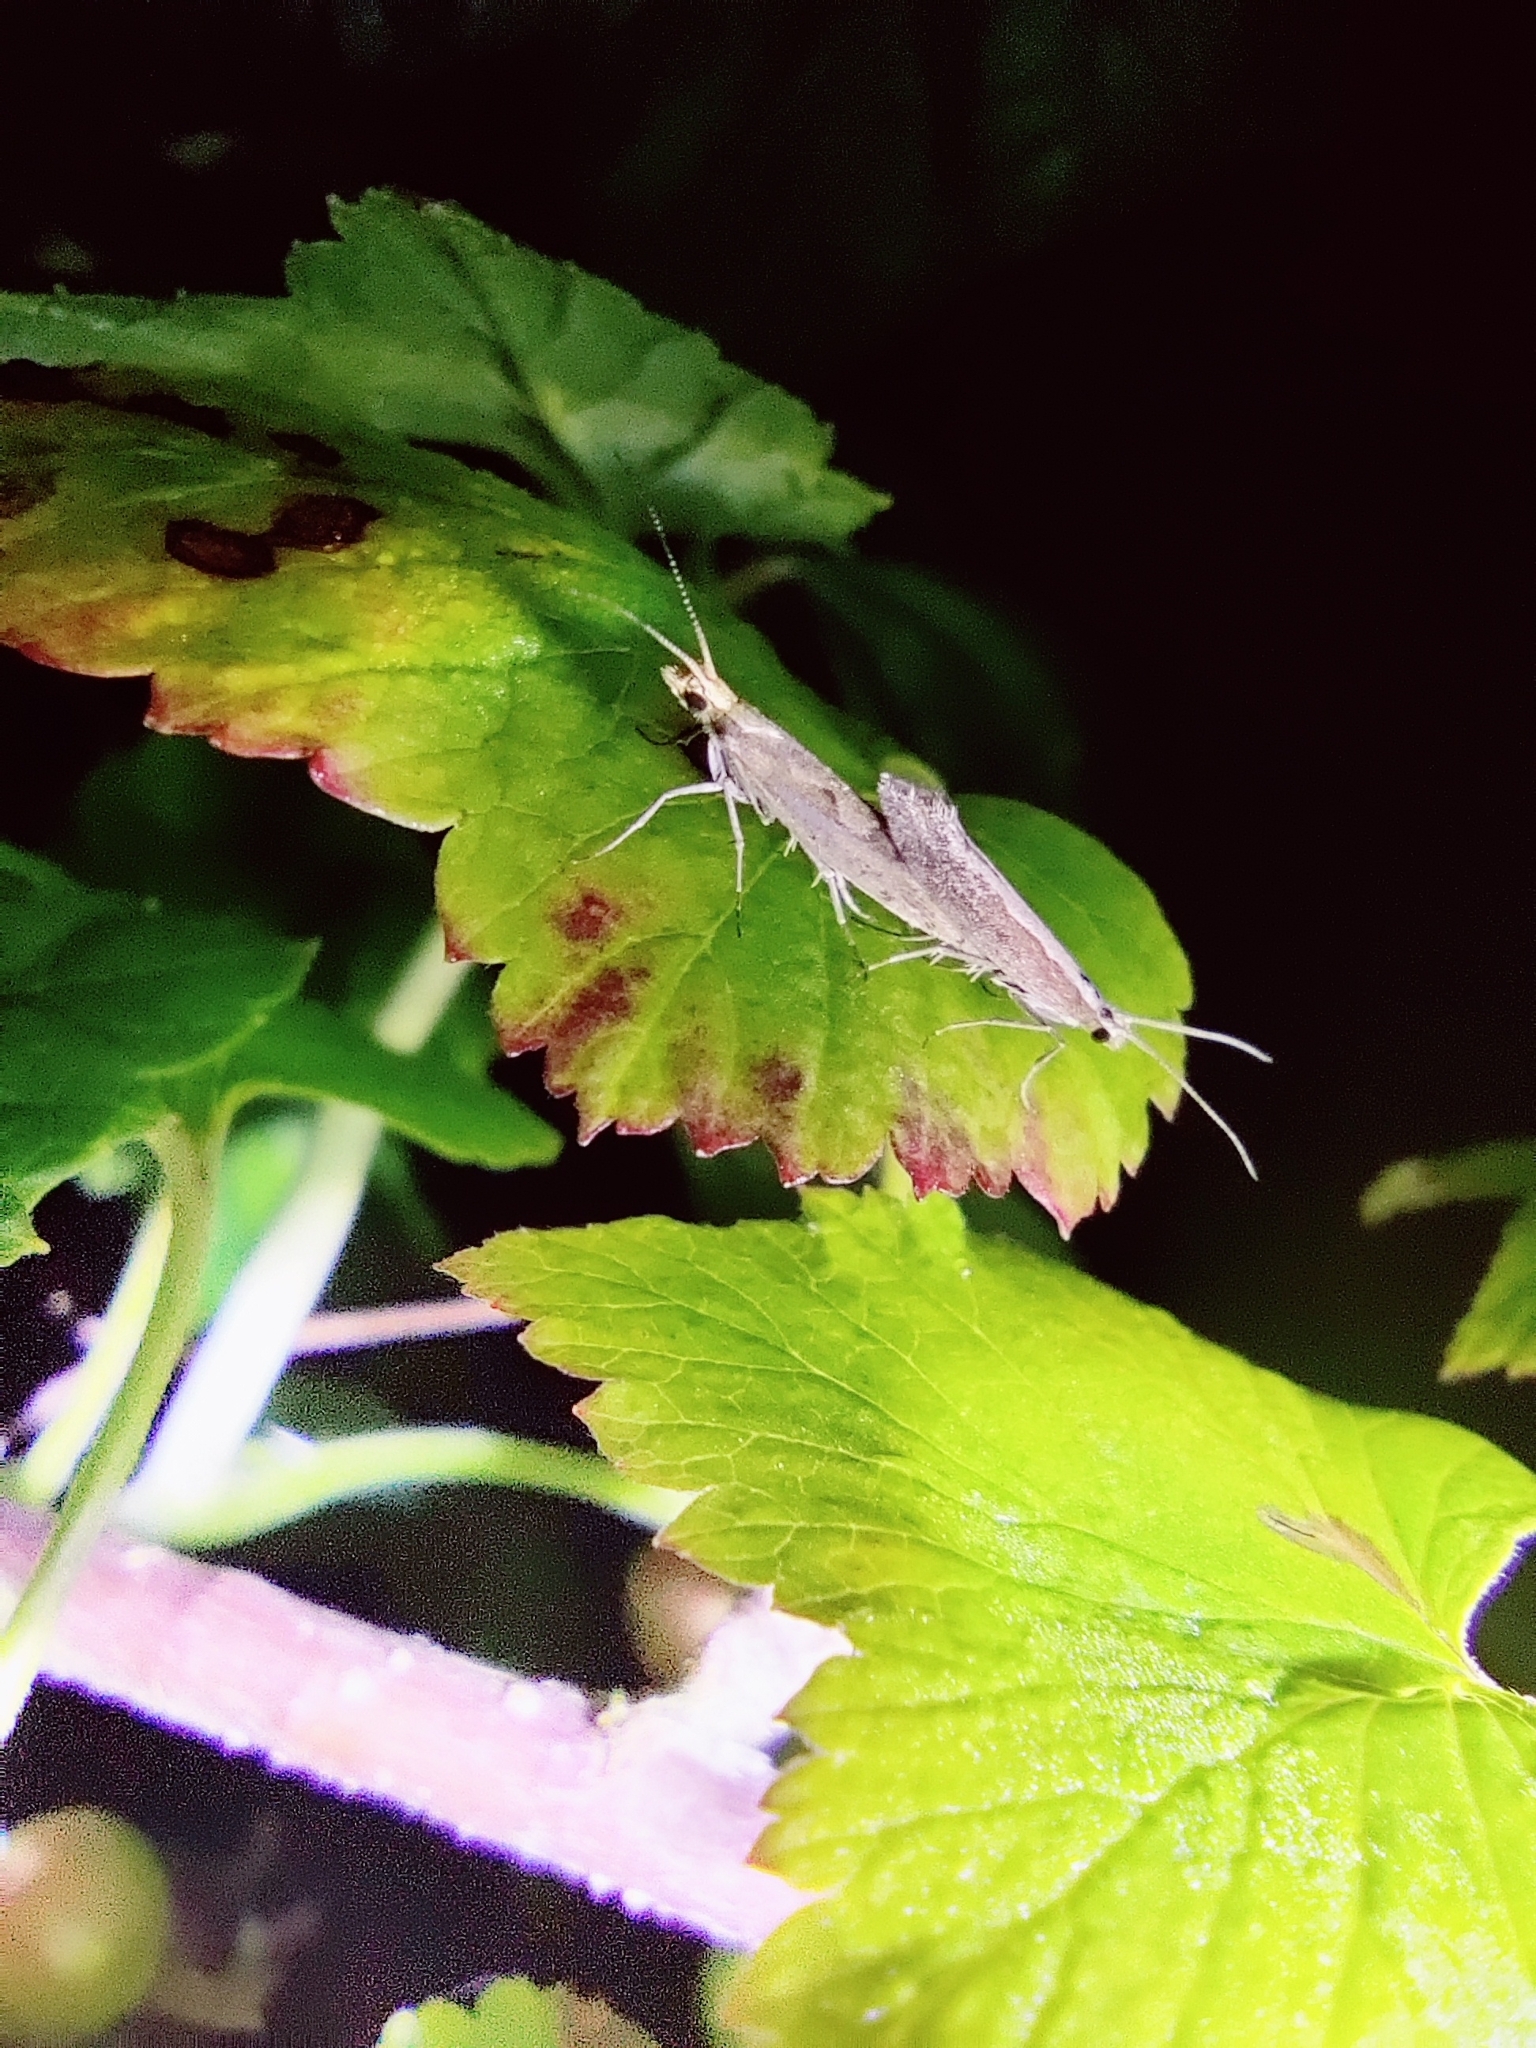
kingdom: Animalia
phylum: Arthropoda
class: Insecta
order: Lepidoptera
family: Plutellidae
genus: Plutella
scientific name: Plutella xylostella
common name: Diamond-back moth
